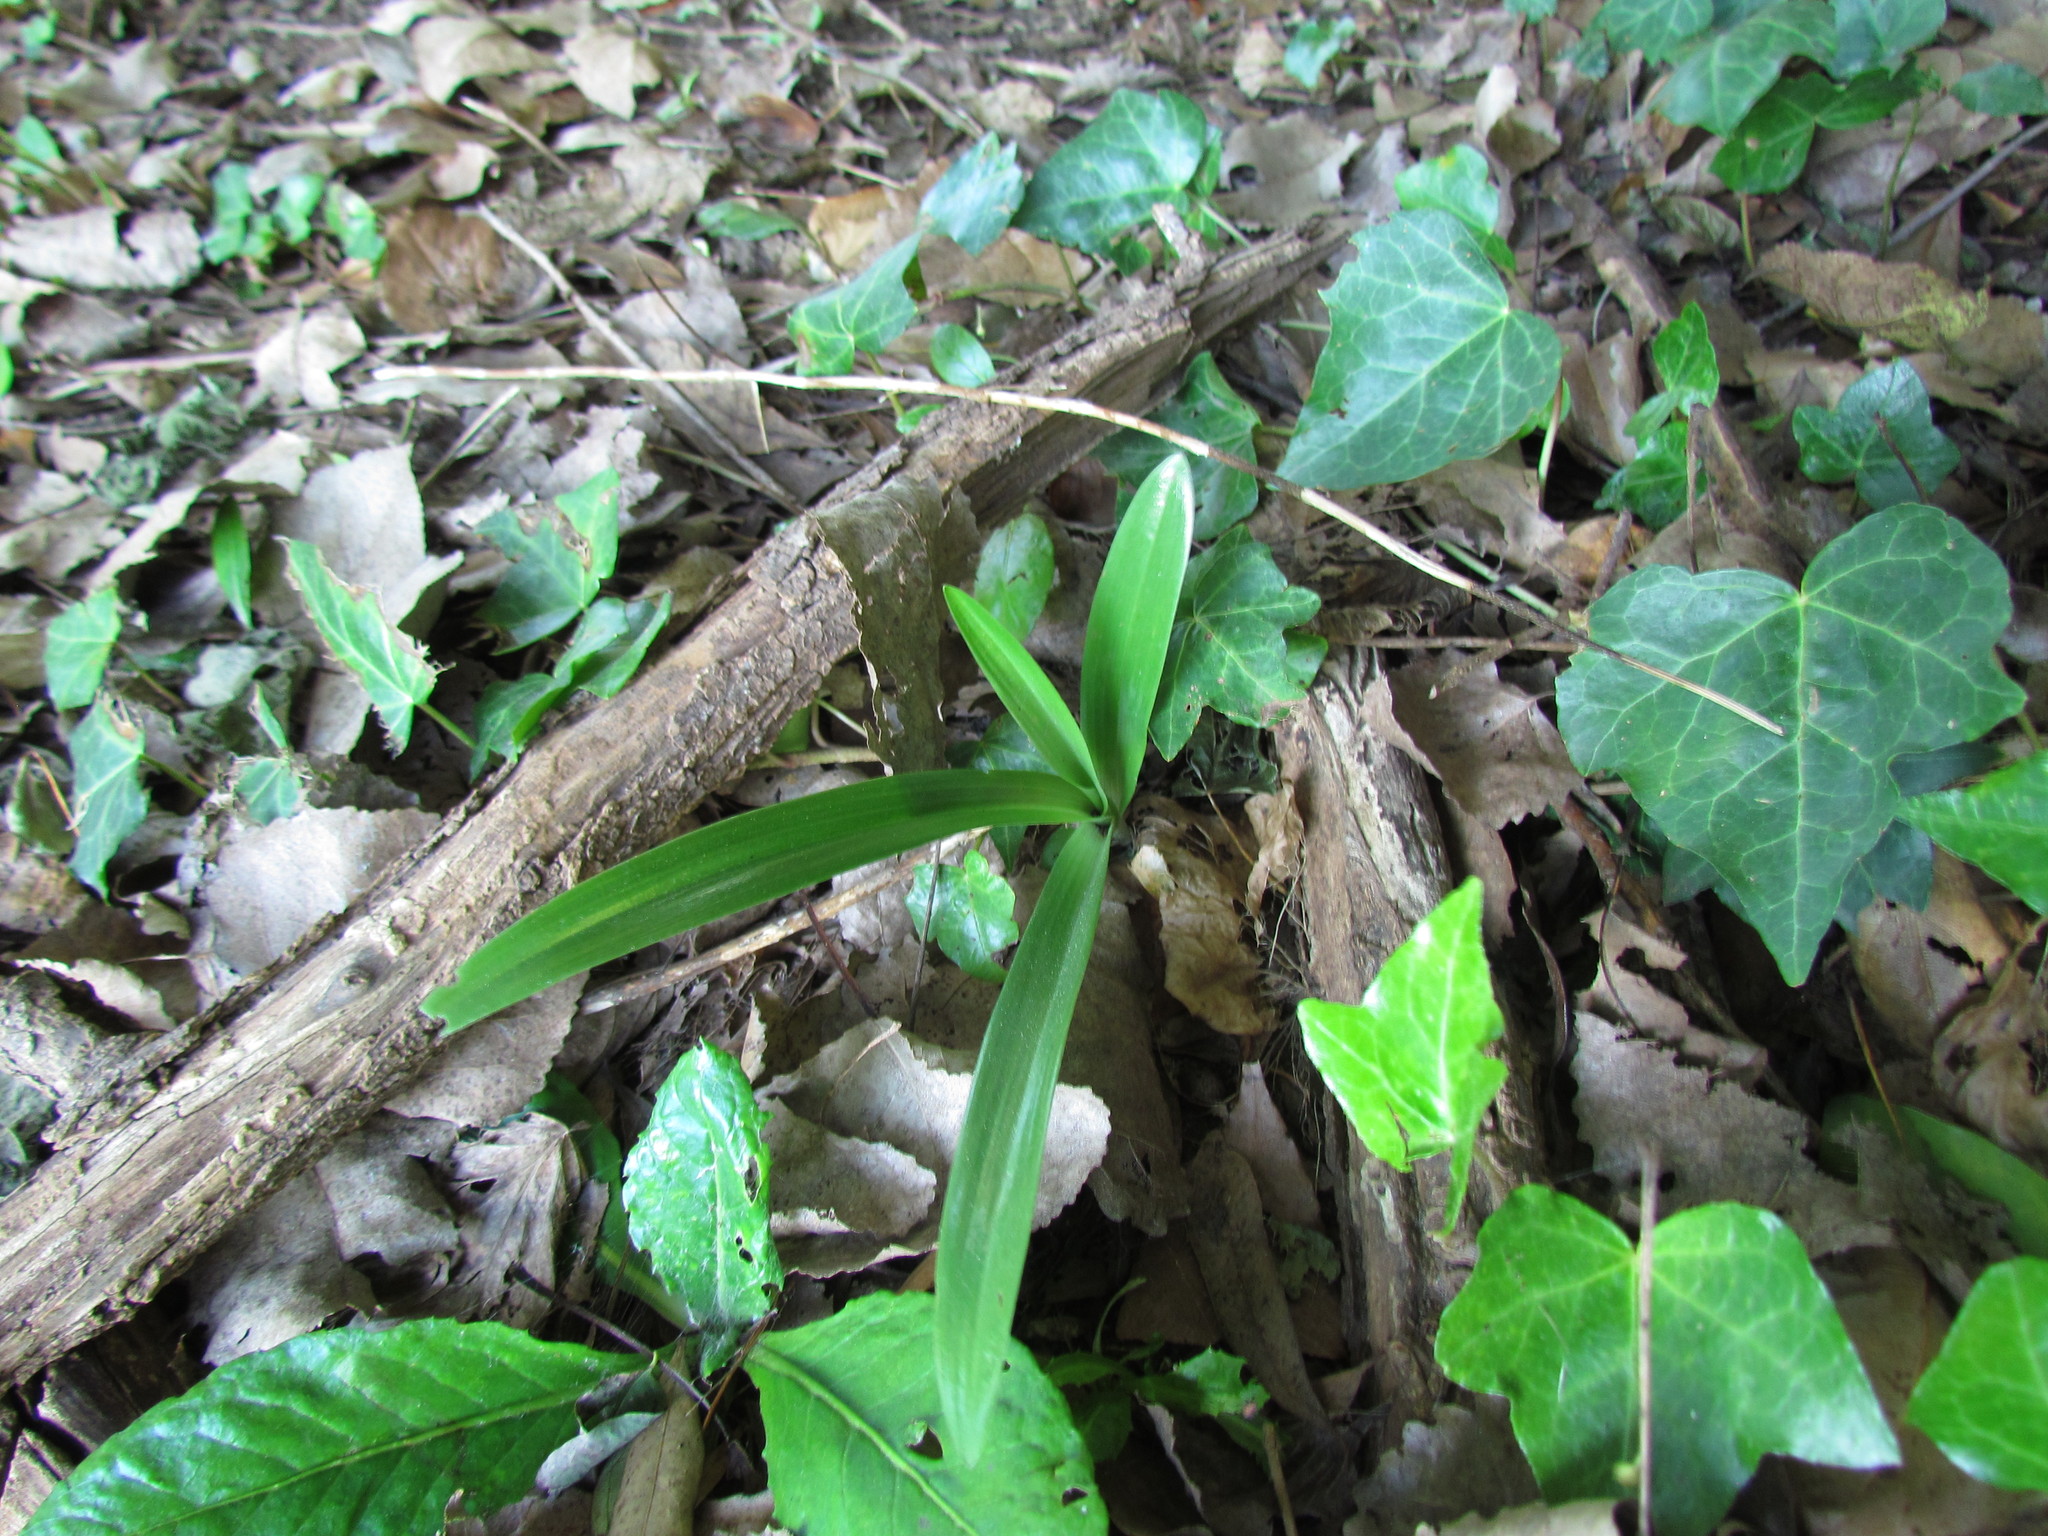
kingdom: Plantae
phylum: Tracheophyta
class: Liliopsida
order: Asparagales
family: Orchidaceae
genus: Chloraea
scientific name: Chloraea membranacea
